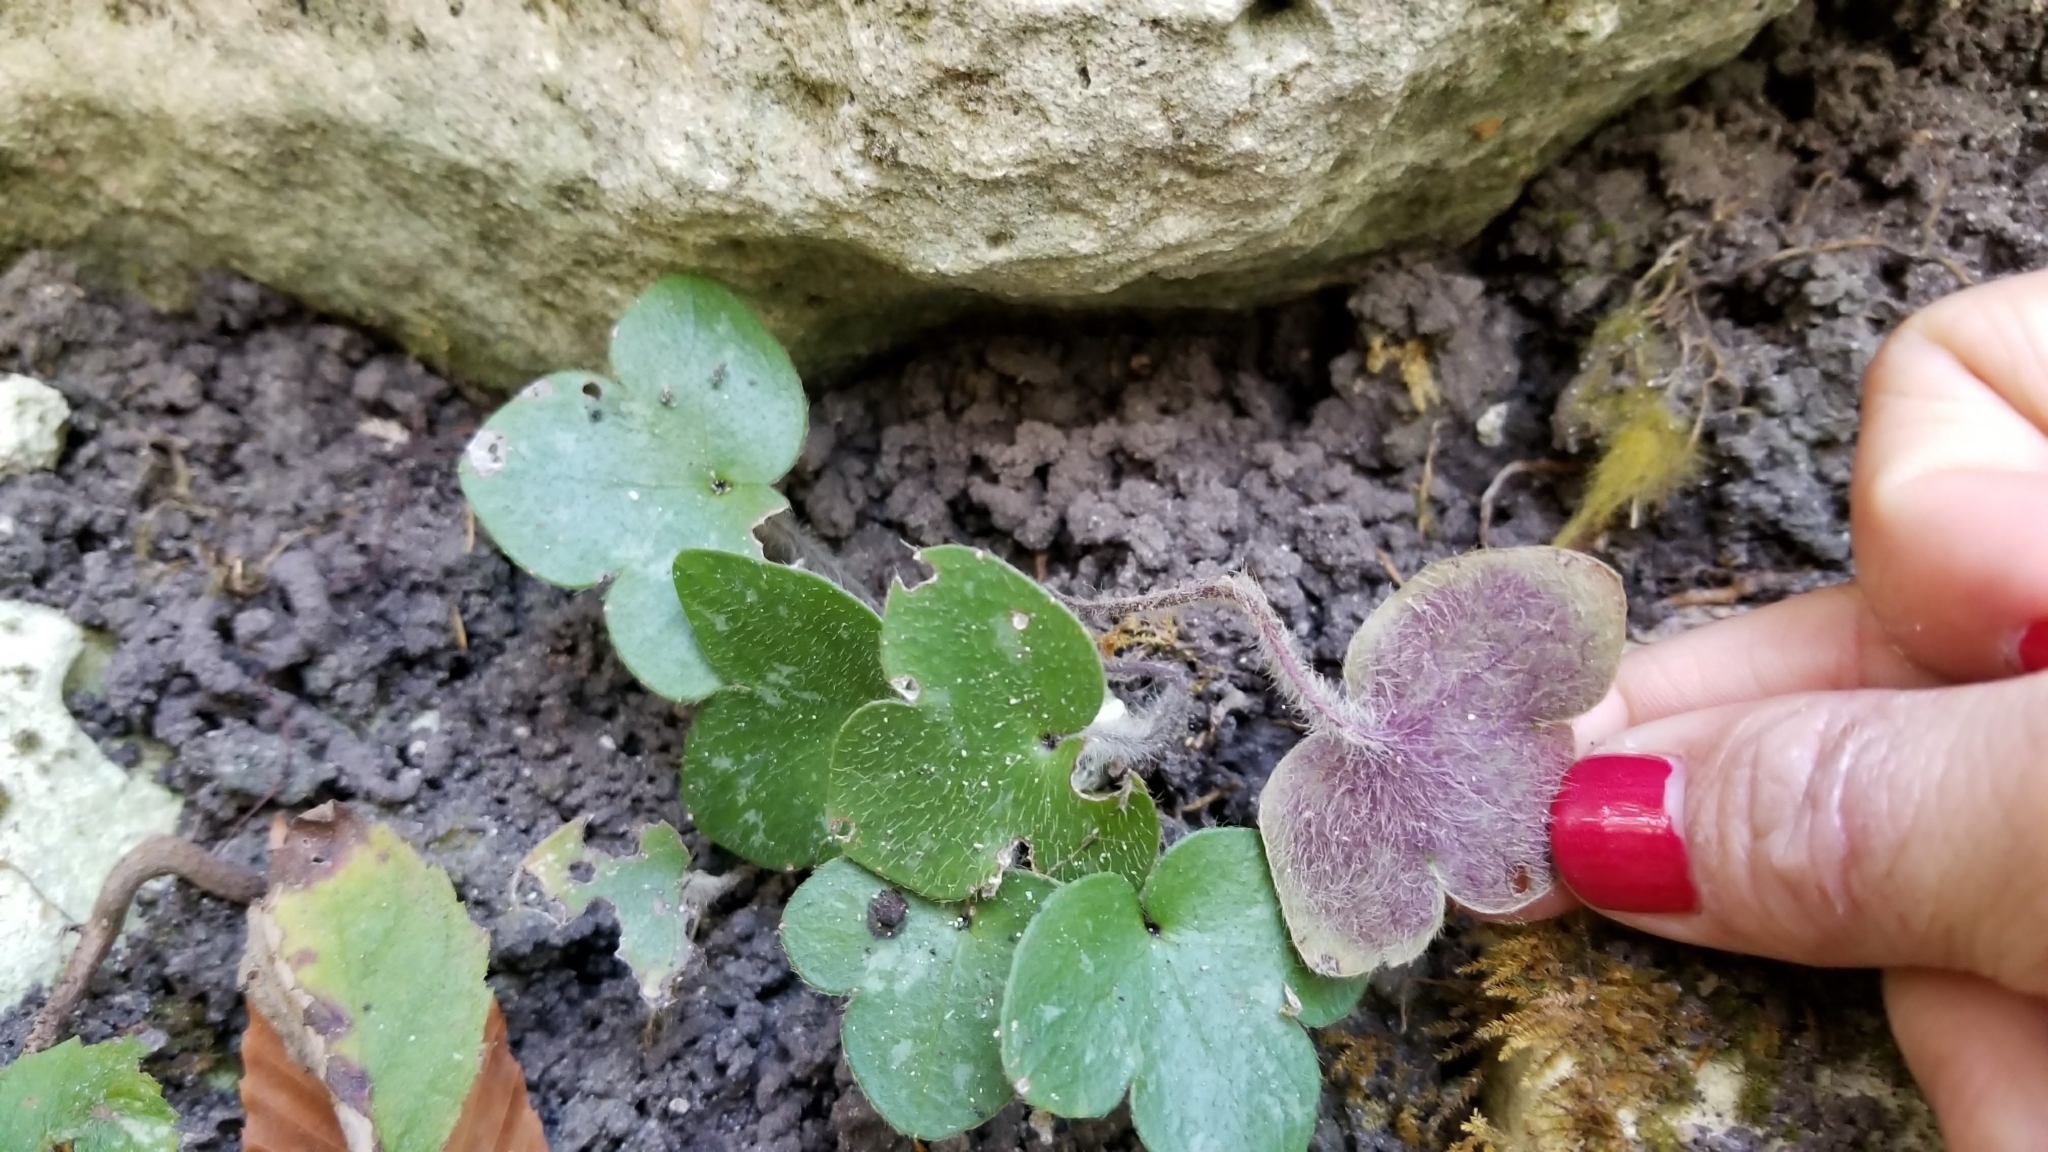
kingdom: Plantae
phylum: Tracheophyta
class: Magnoliopsida
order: Ranunculales
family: Ranunculaceae
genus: Hepatica
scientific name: Hepatica americana
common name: American hepatica
